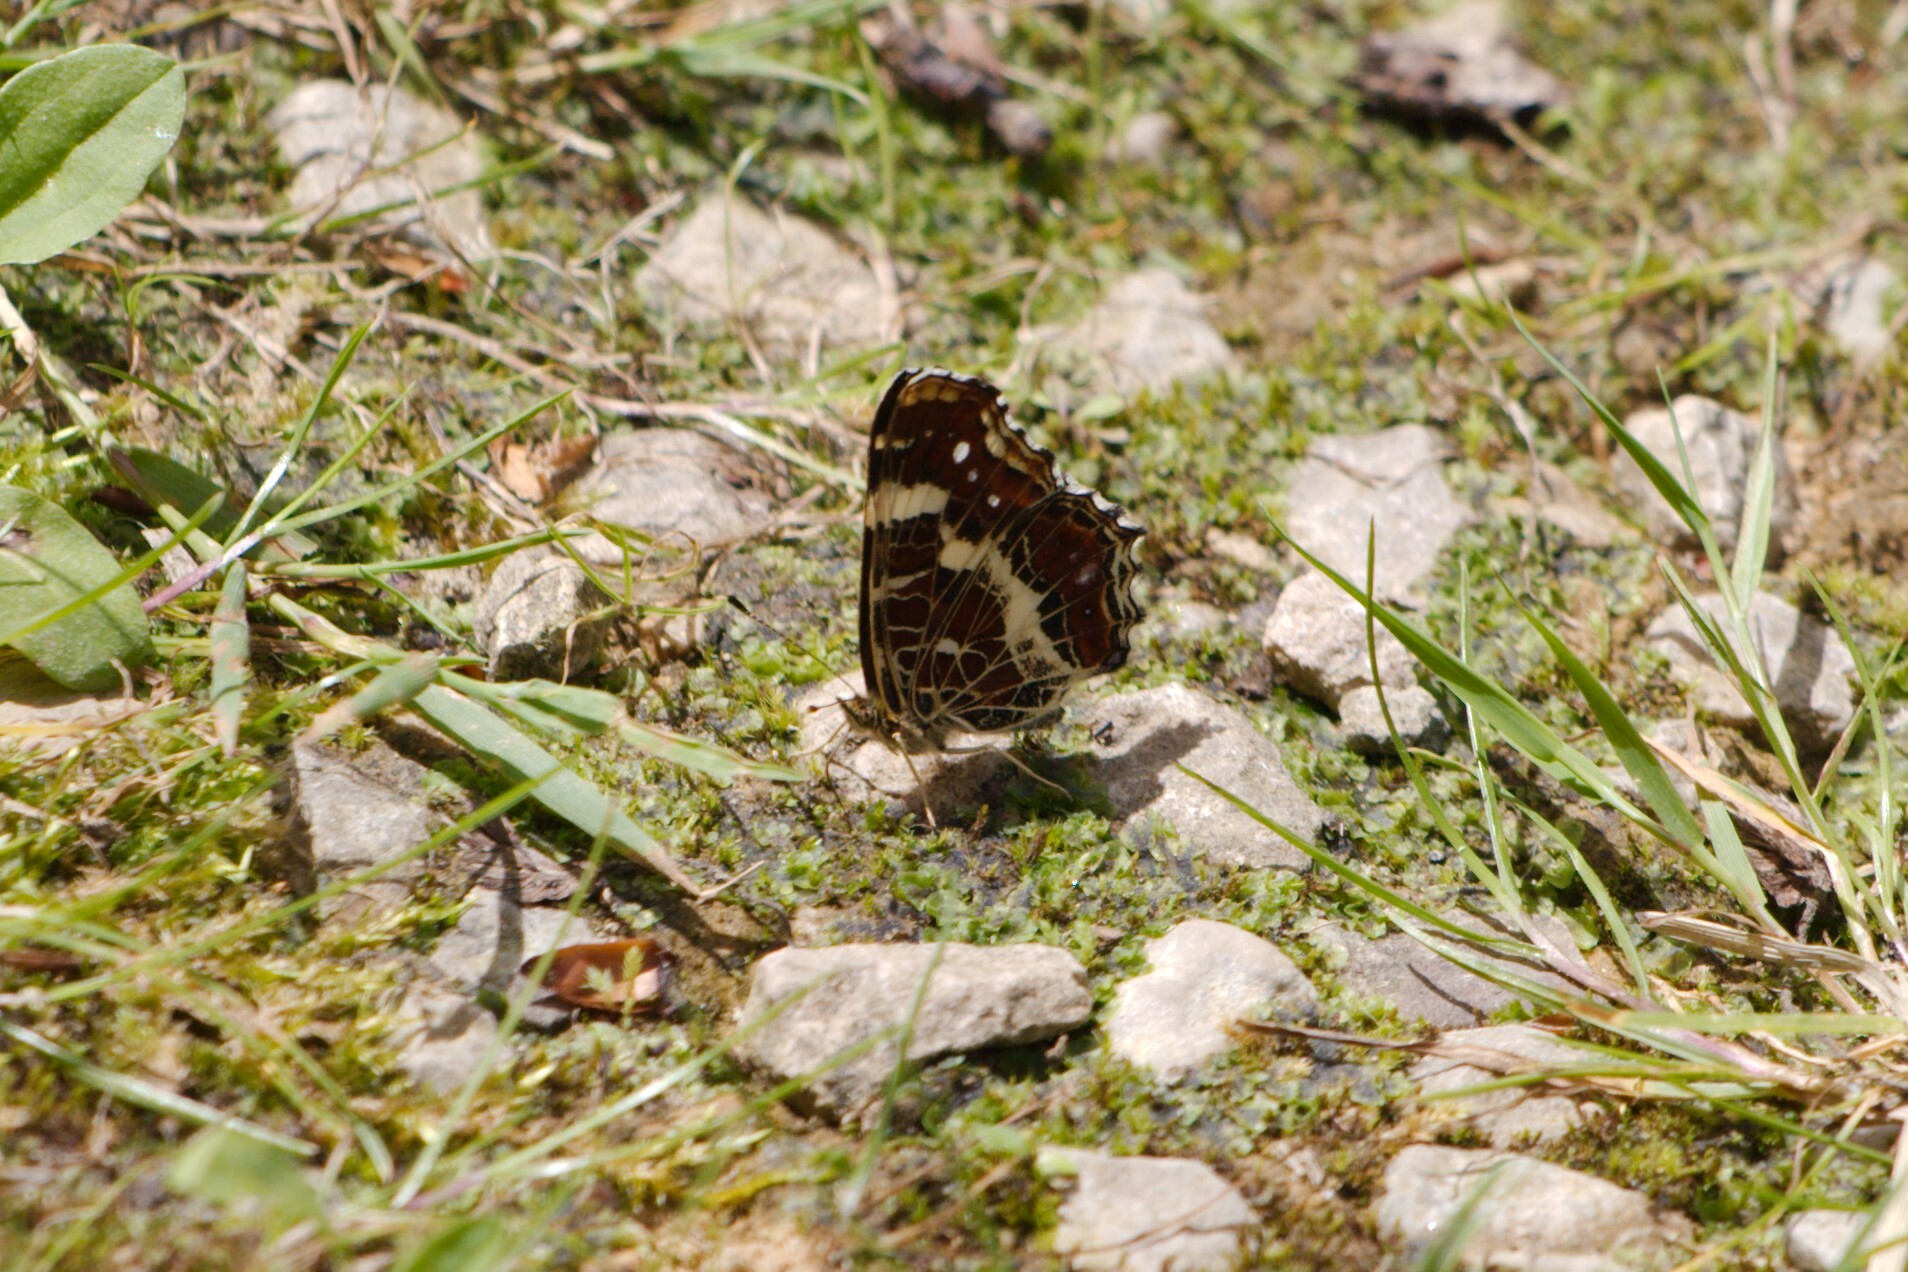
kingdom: Animalia
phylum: Arthropoda
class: Insecta
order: Lepidoptera
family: Nymphalidae
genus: Araschnia
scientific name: Araschnia levana
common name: Map butterfly
